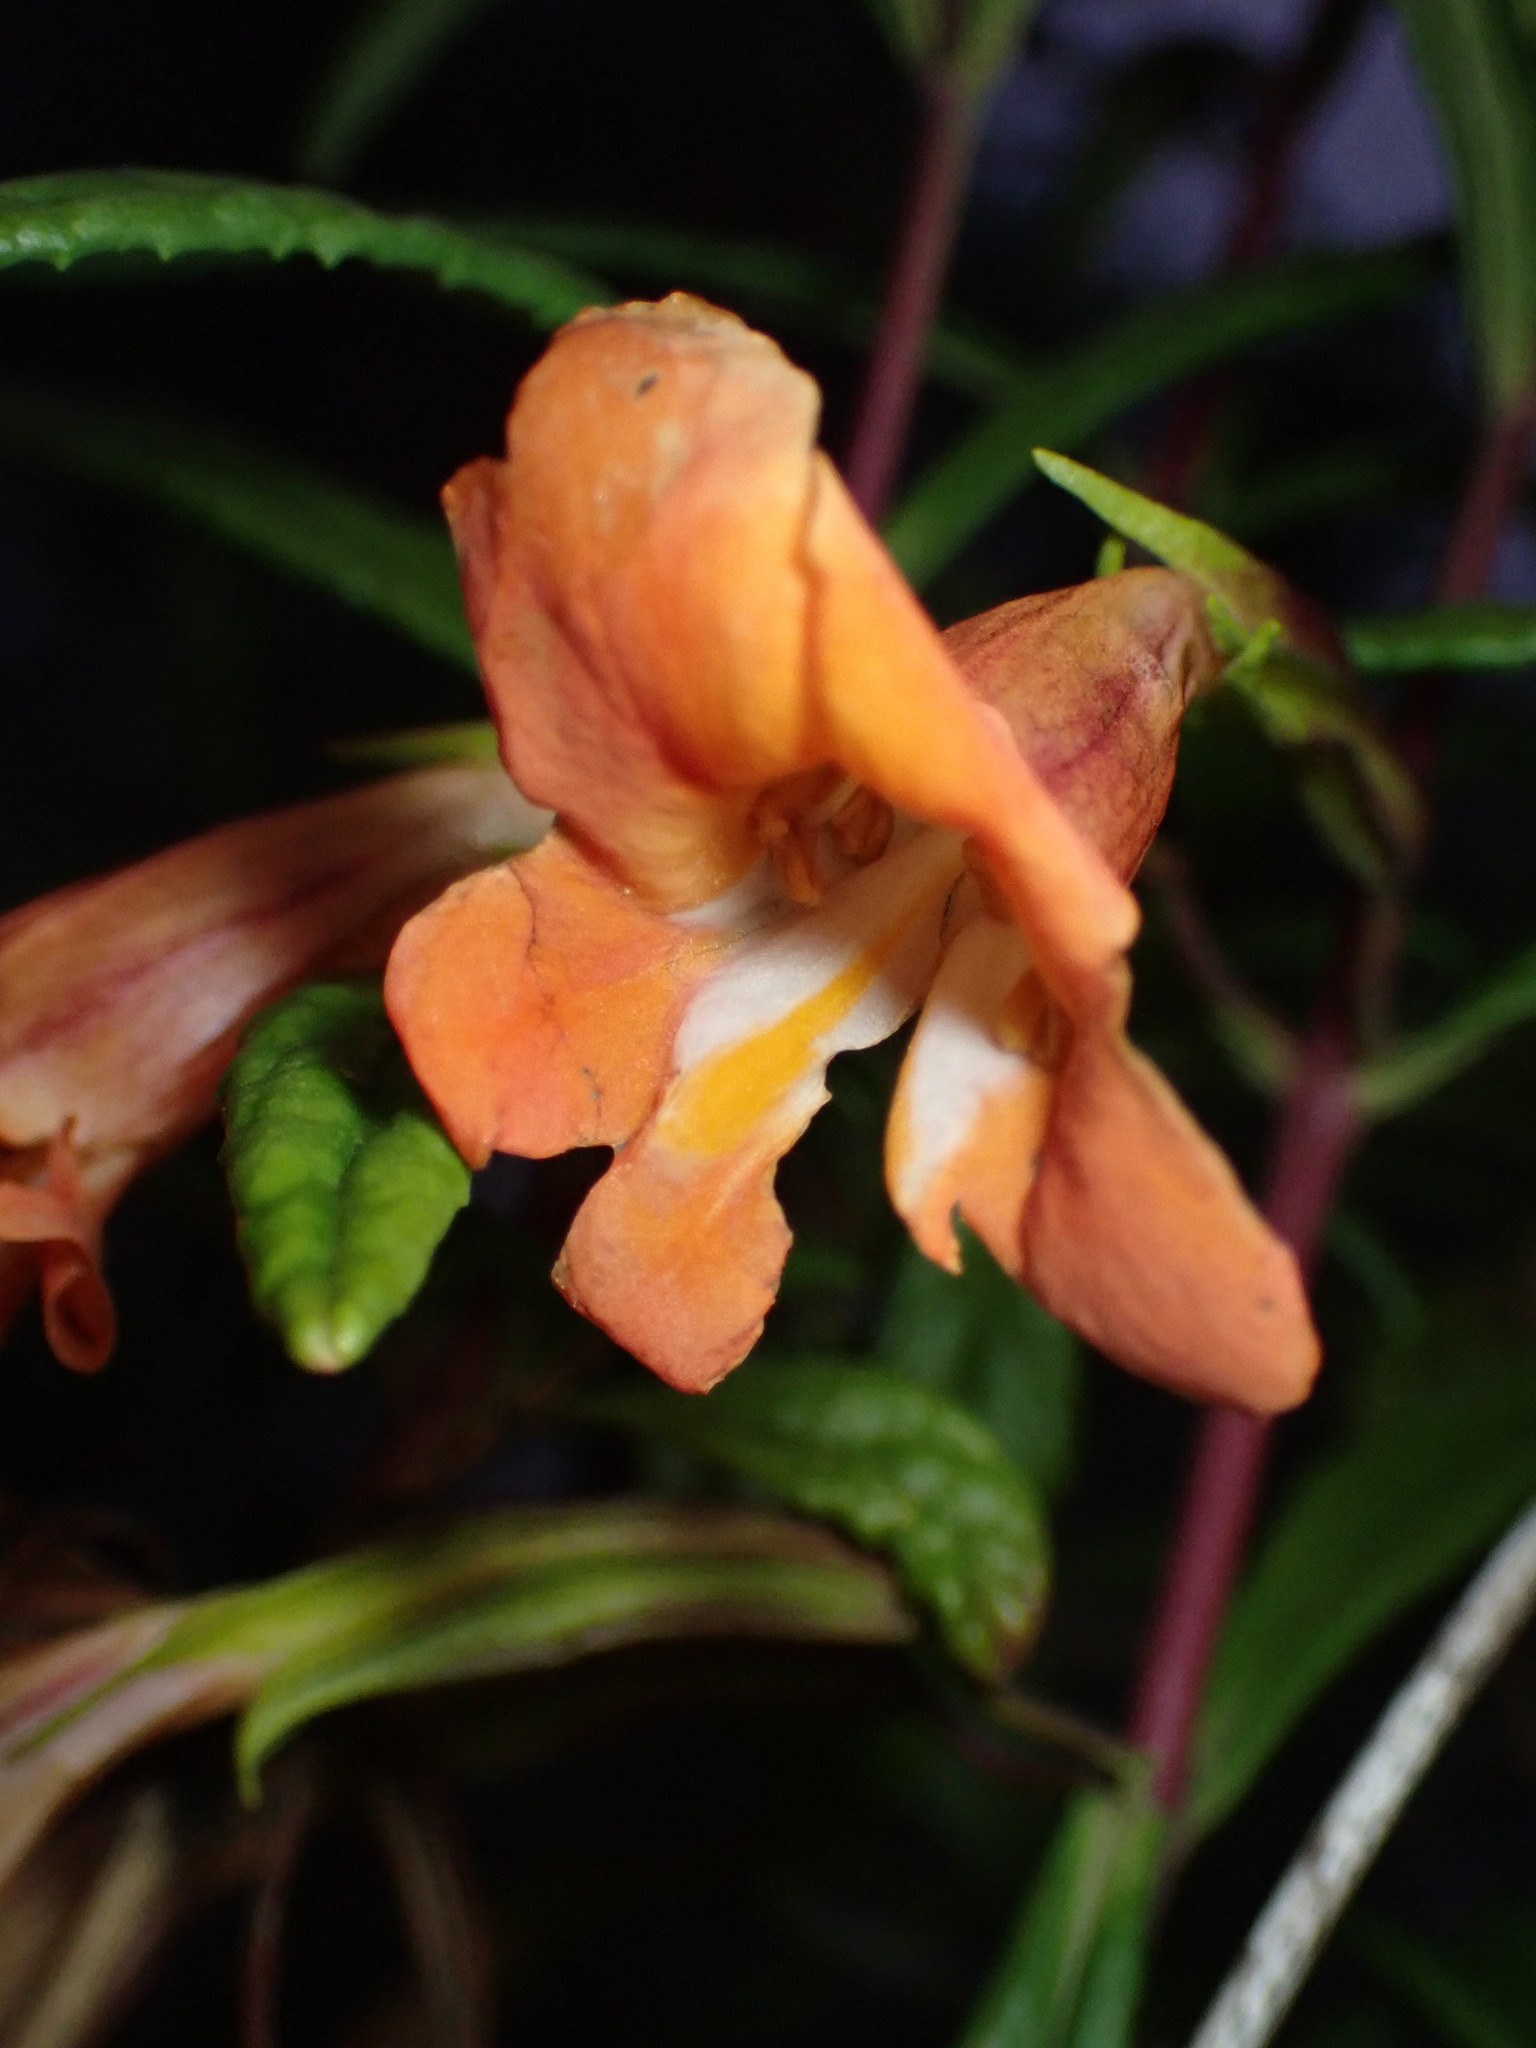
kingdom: Plantae
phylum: Tracheophyta
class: Magnoliopsida
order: Lamiales
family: Phrymaceae
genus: Diplacus
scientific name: Diplacus australis
